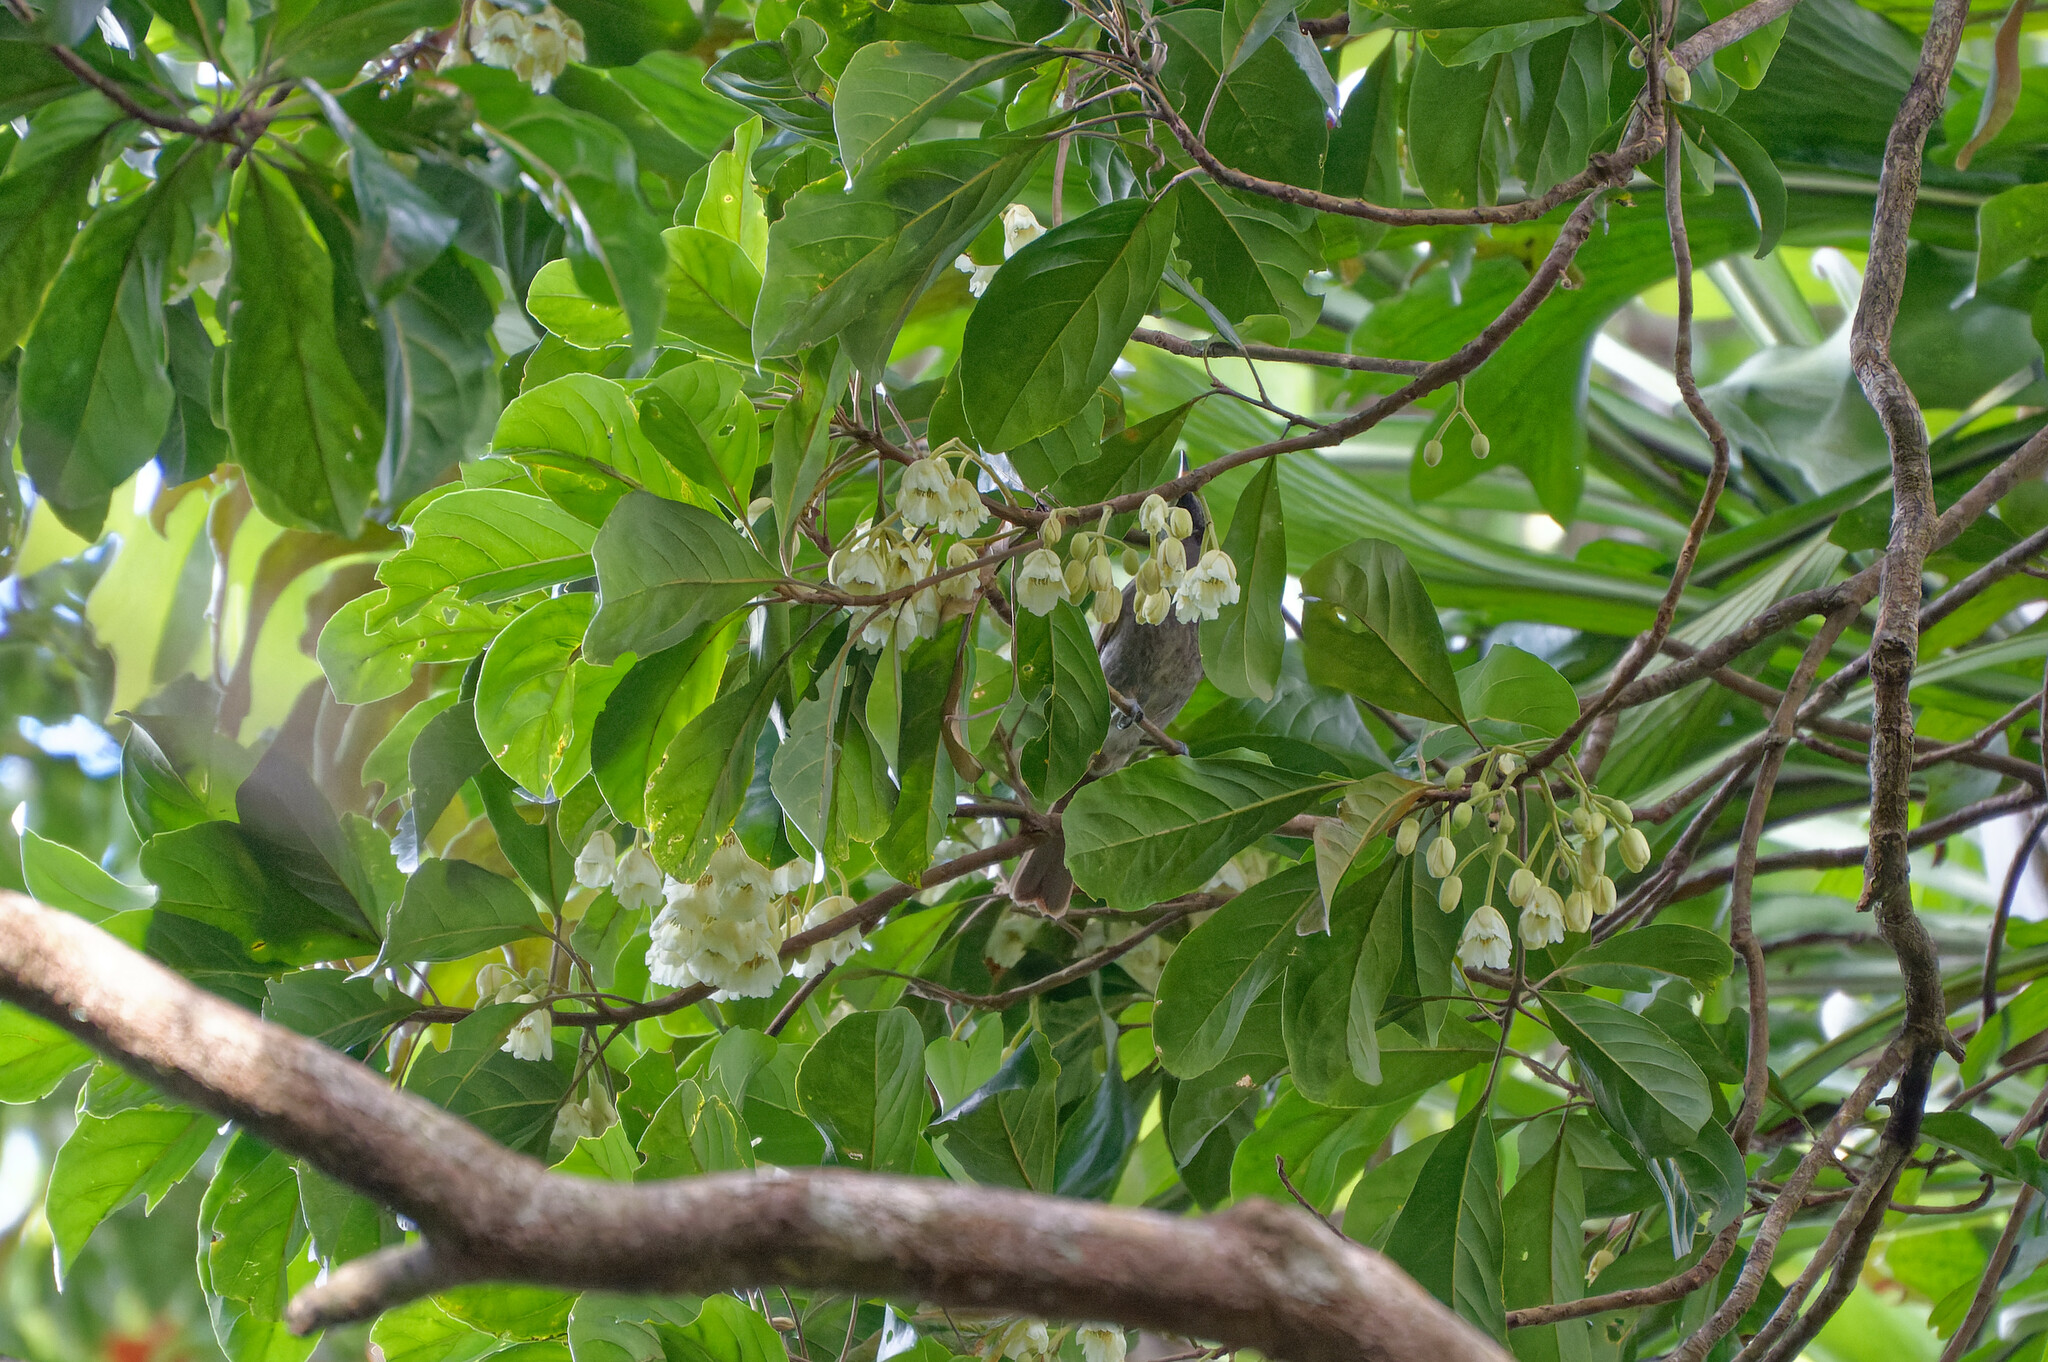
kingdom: Plantae
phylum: Tracheophyta
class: Magnoliopsida
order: Oxalidales
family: Elaeocarpaceae
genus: Elaeocarpus
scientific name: Elaeocarpus bancroftii
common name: Johnstone river-almond
